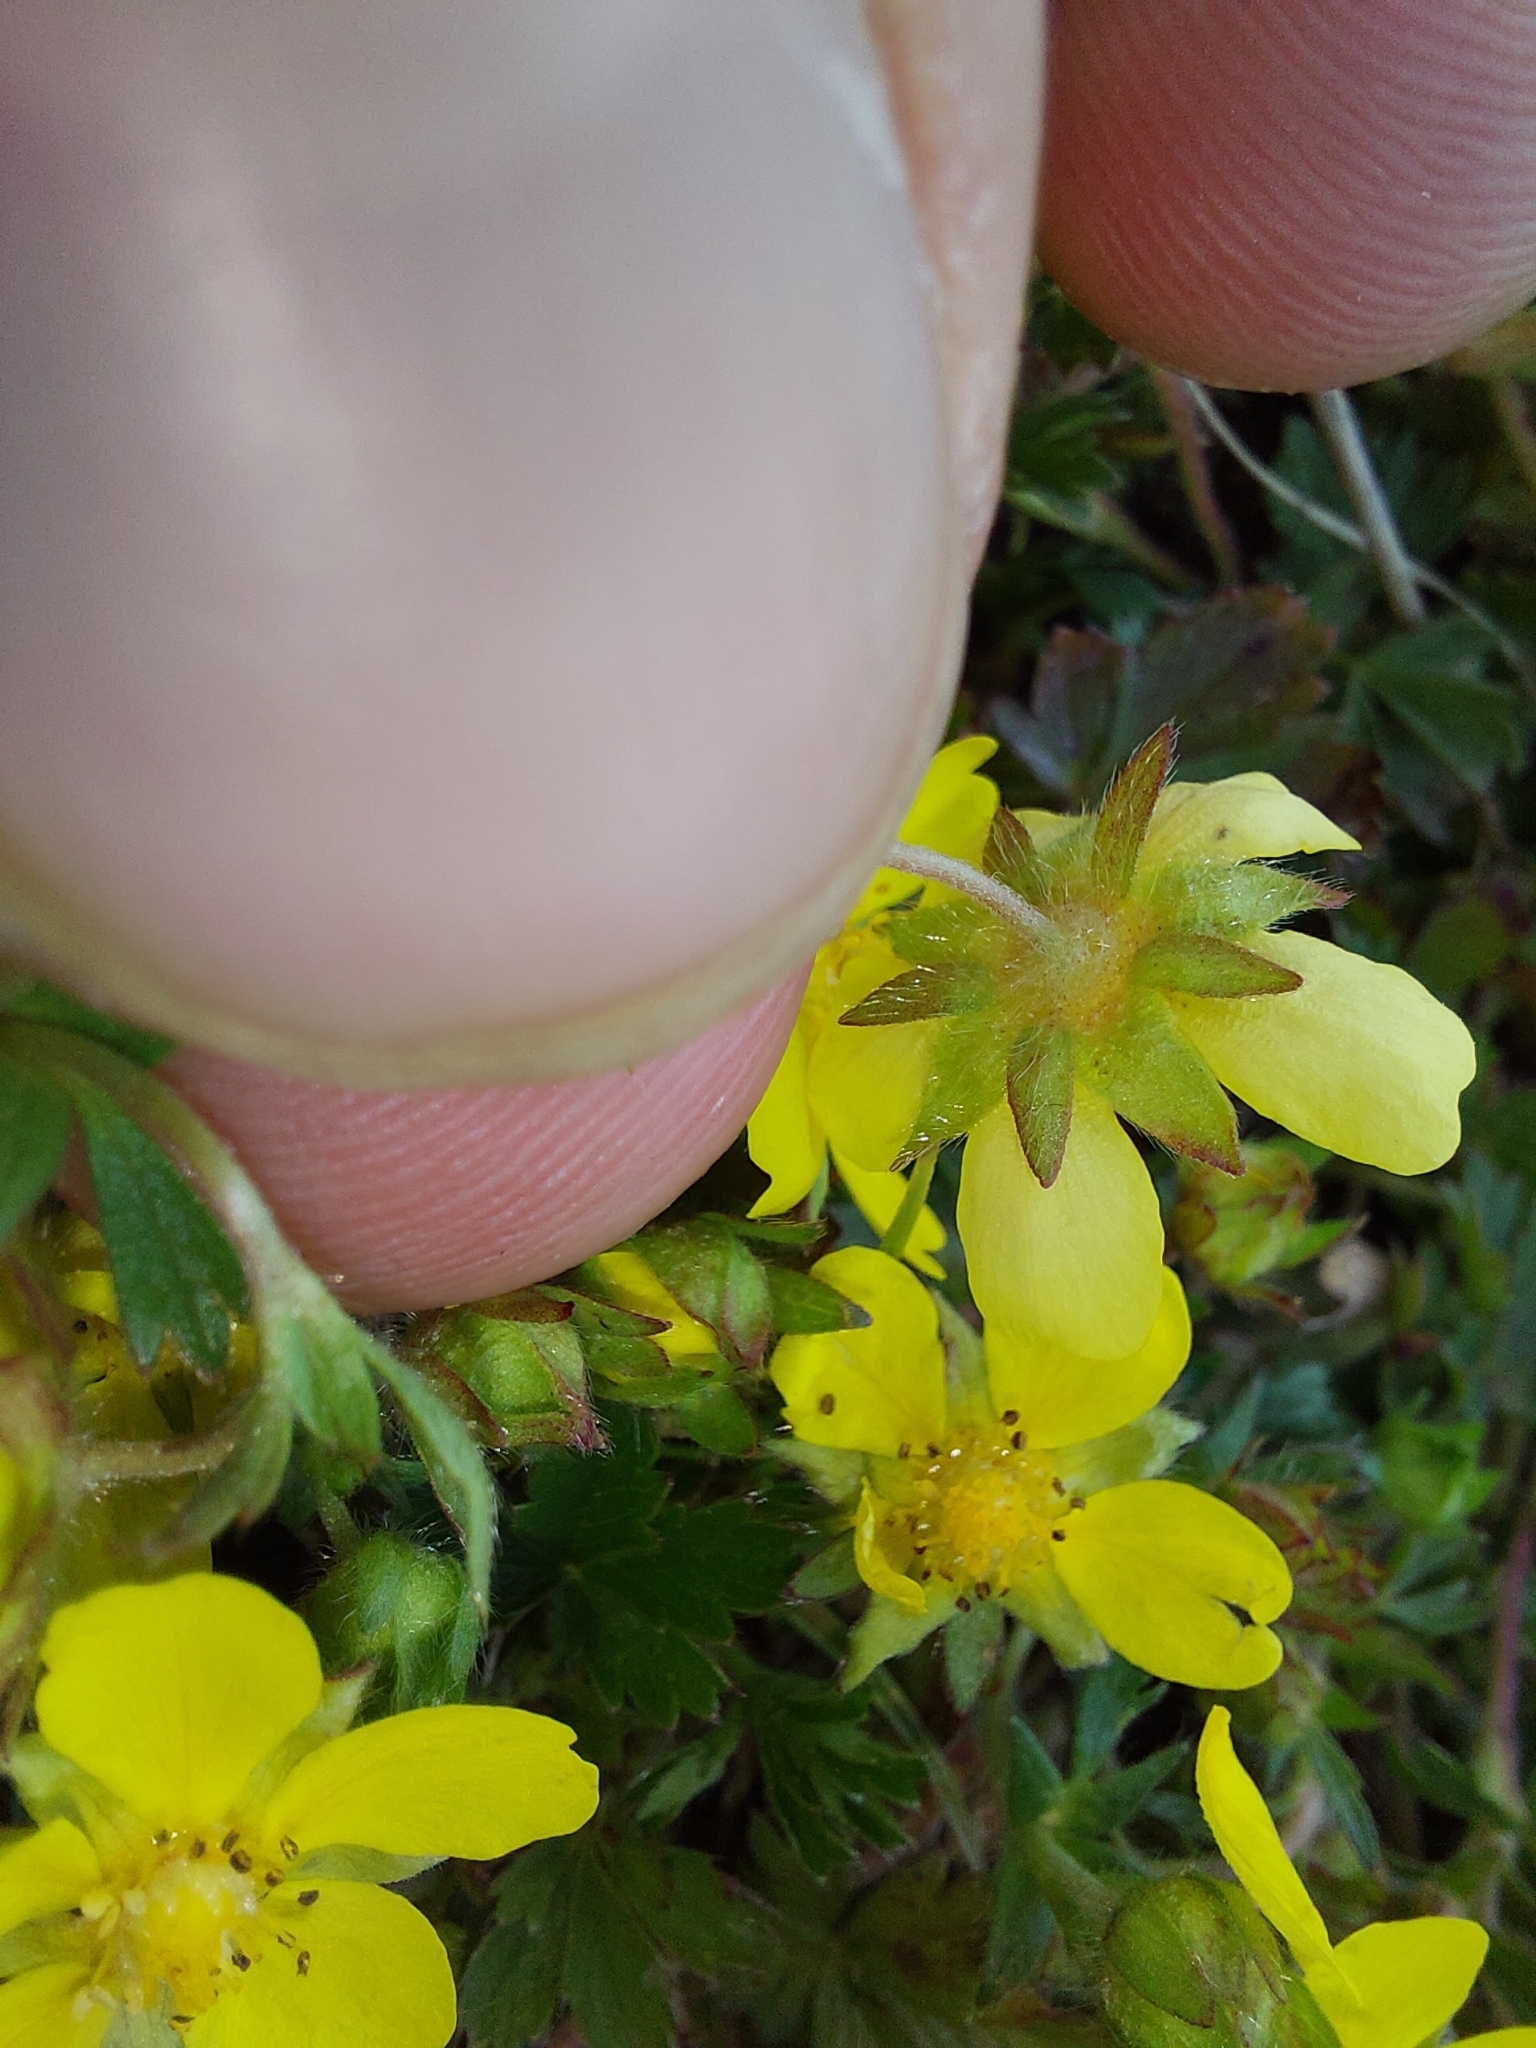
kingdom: Plantae
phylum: Tracheophyta
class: Magnoliopsida
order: Rosales
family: Rosaceae
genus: Potentilla
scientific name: Potentilla verna
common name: Spring cinquefoil
